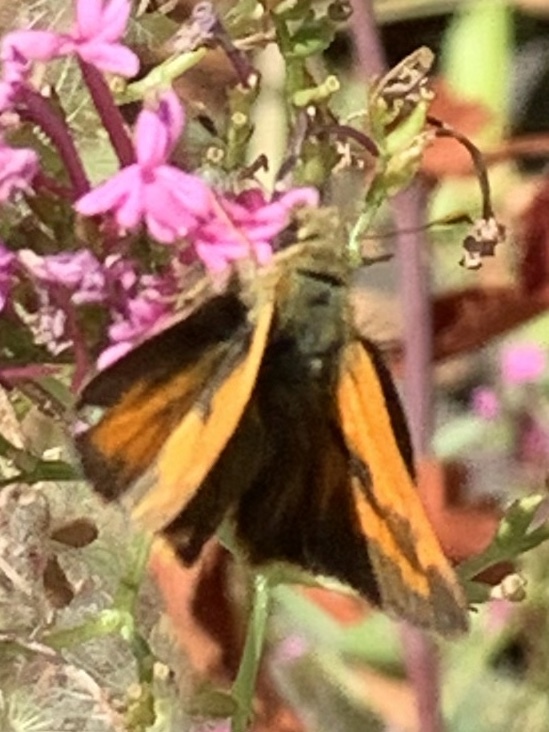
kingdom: Animalia
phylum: Arthropoda
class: Insecta
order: Lepidoptera
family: Hesperiidae
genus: Ochlodes
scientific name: Ochlodes sylvanoides
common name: Woodland skipper
